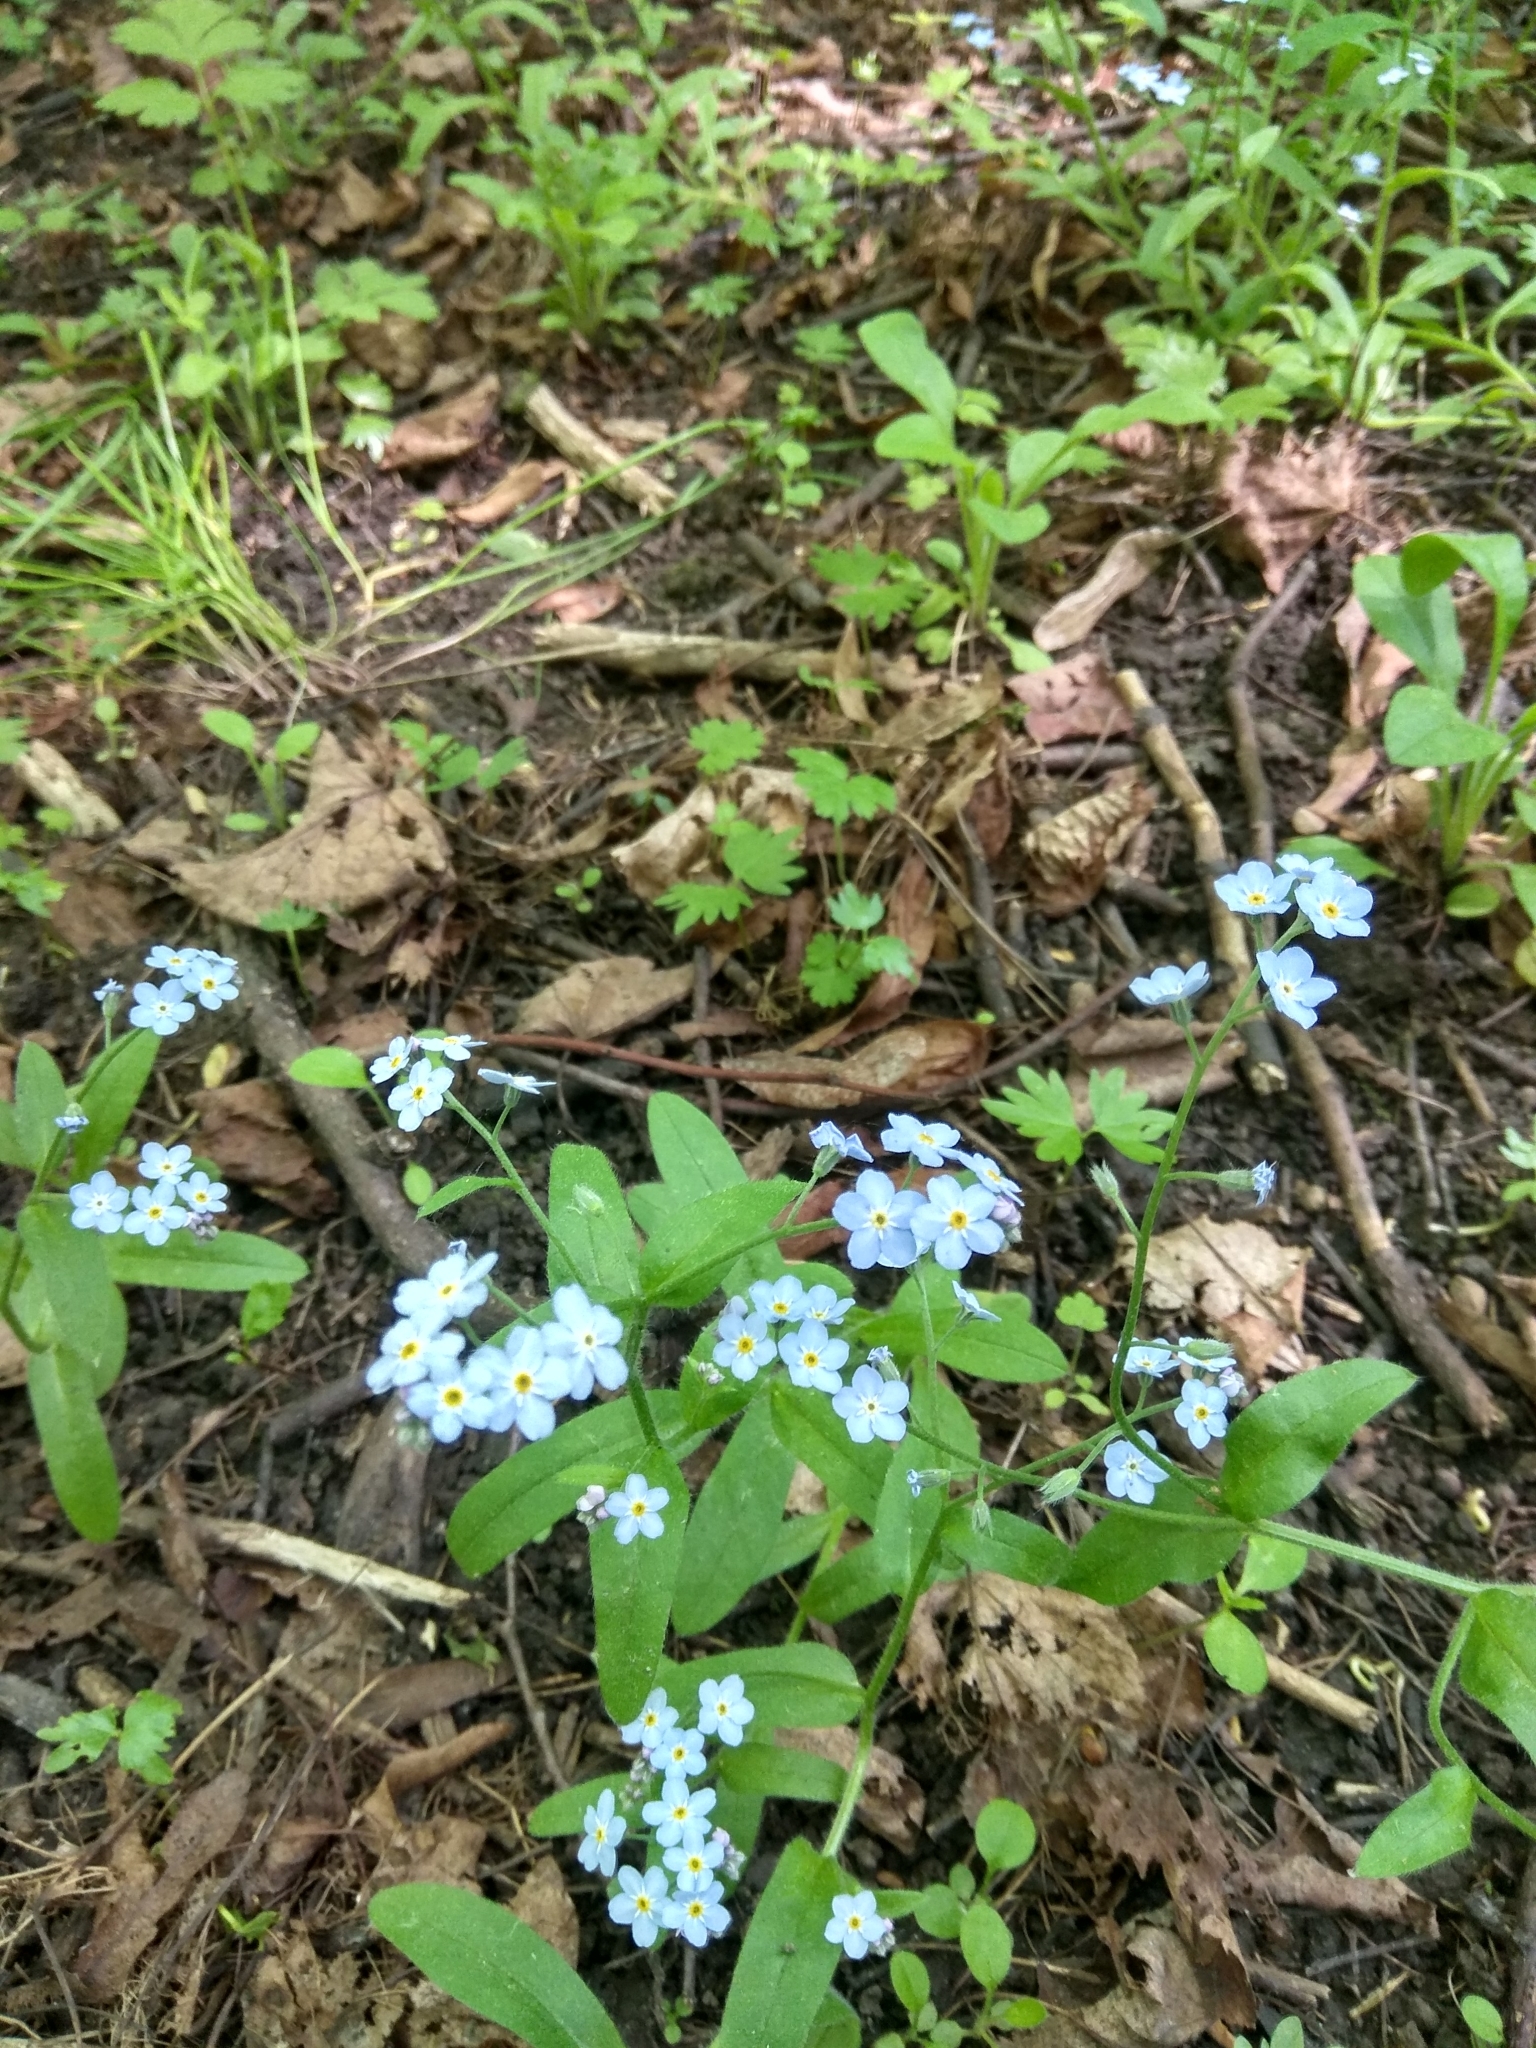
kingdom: Plantae
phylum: Tracheophyta
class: Magnoliopsida
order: Boraginales
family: Boraginaceae
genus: Myosotis
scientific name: Myosotis sylvatica
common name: Wood forget-me-not
